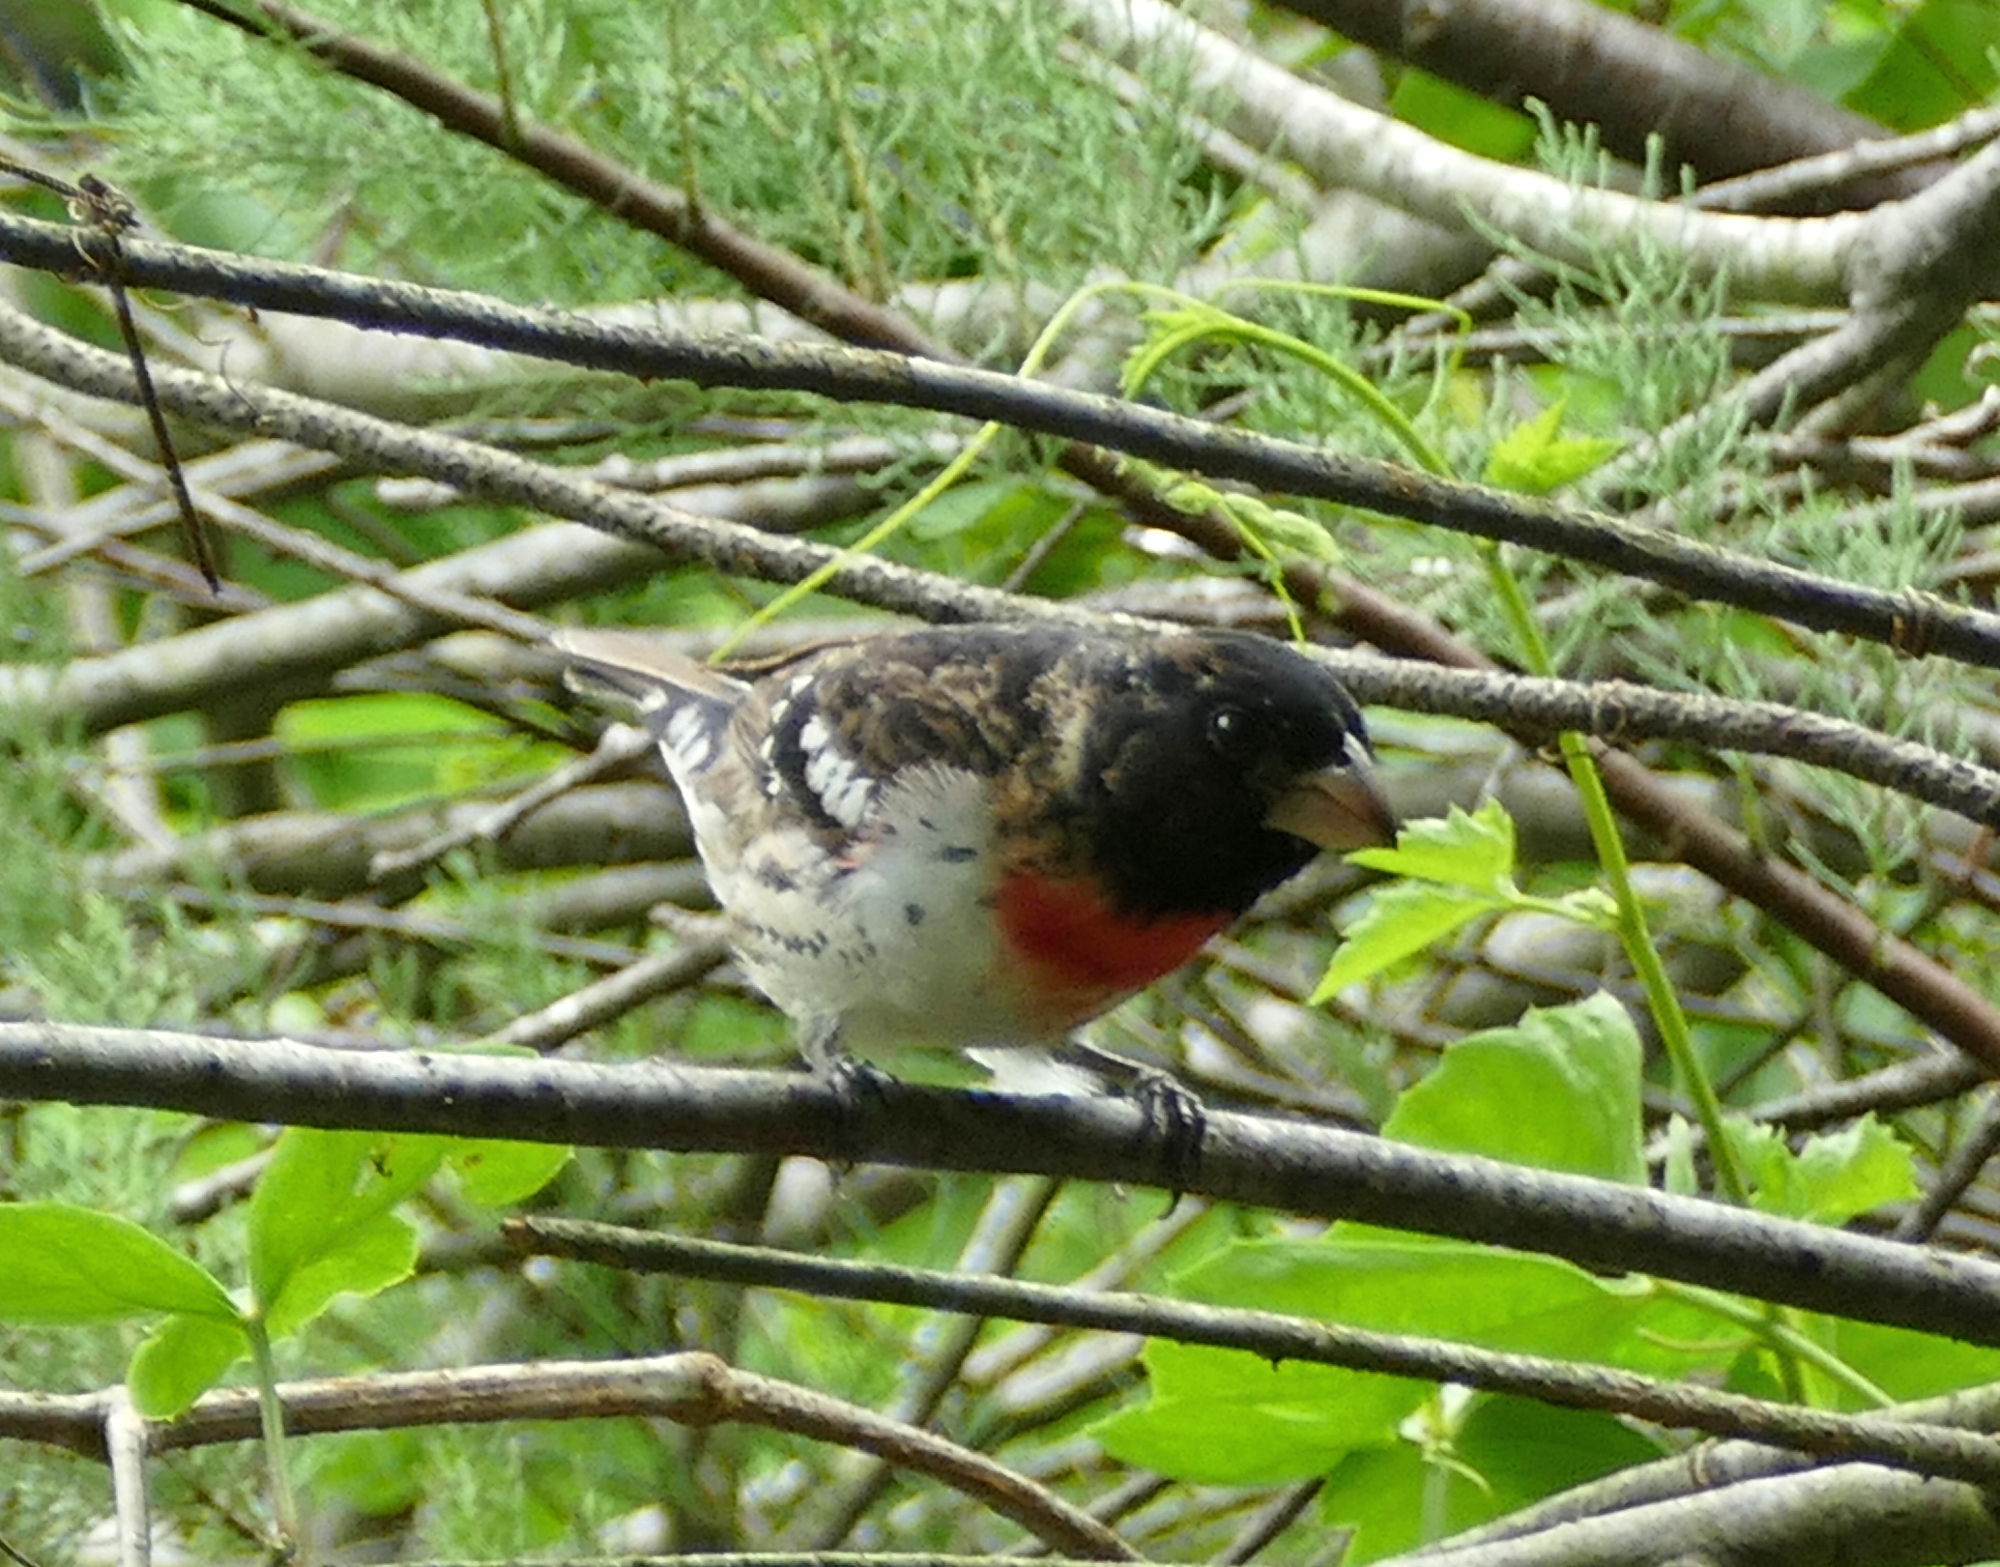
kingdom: Animalia
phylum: Chordata
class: Aves
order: Passeriformes
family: Cardinalidae
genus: Pheucticus
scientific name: Pheucticus ludovicianus
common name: Rose-breasted grosbeak
